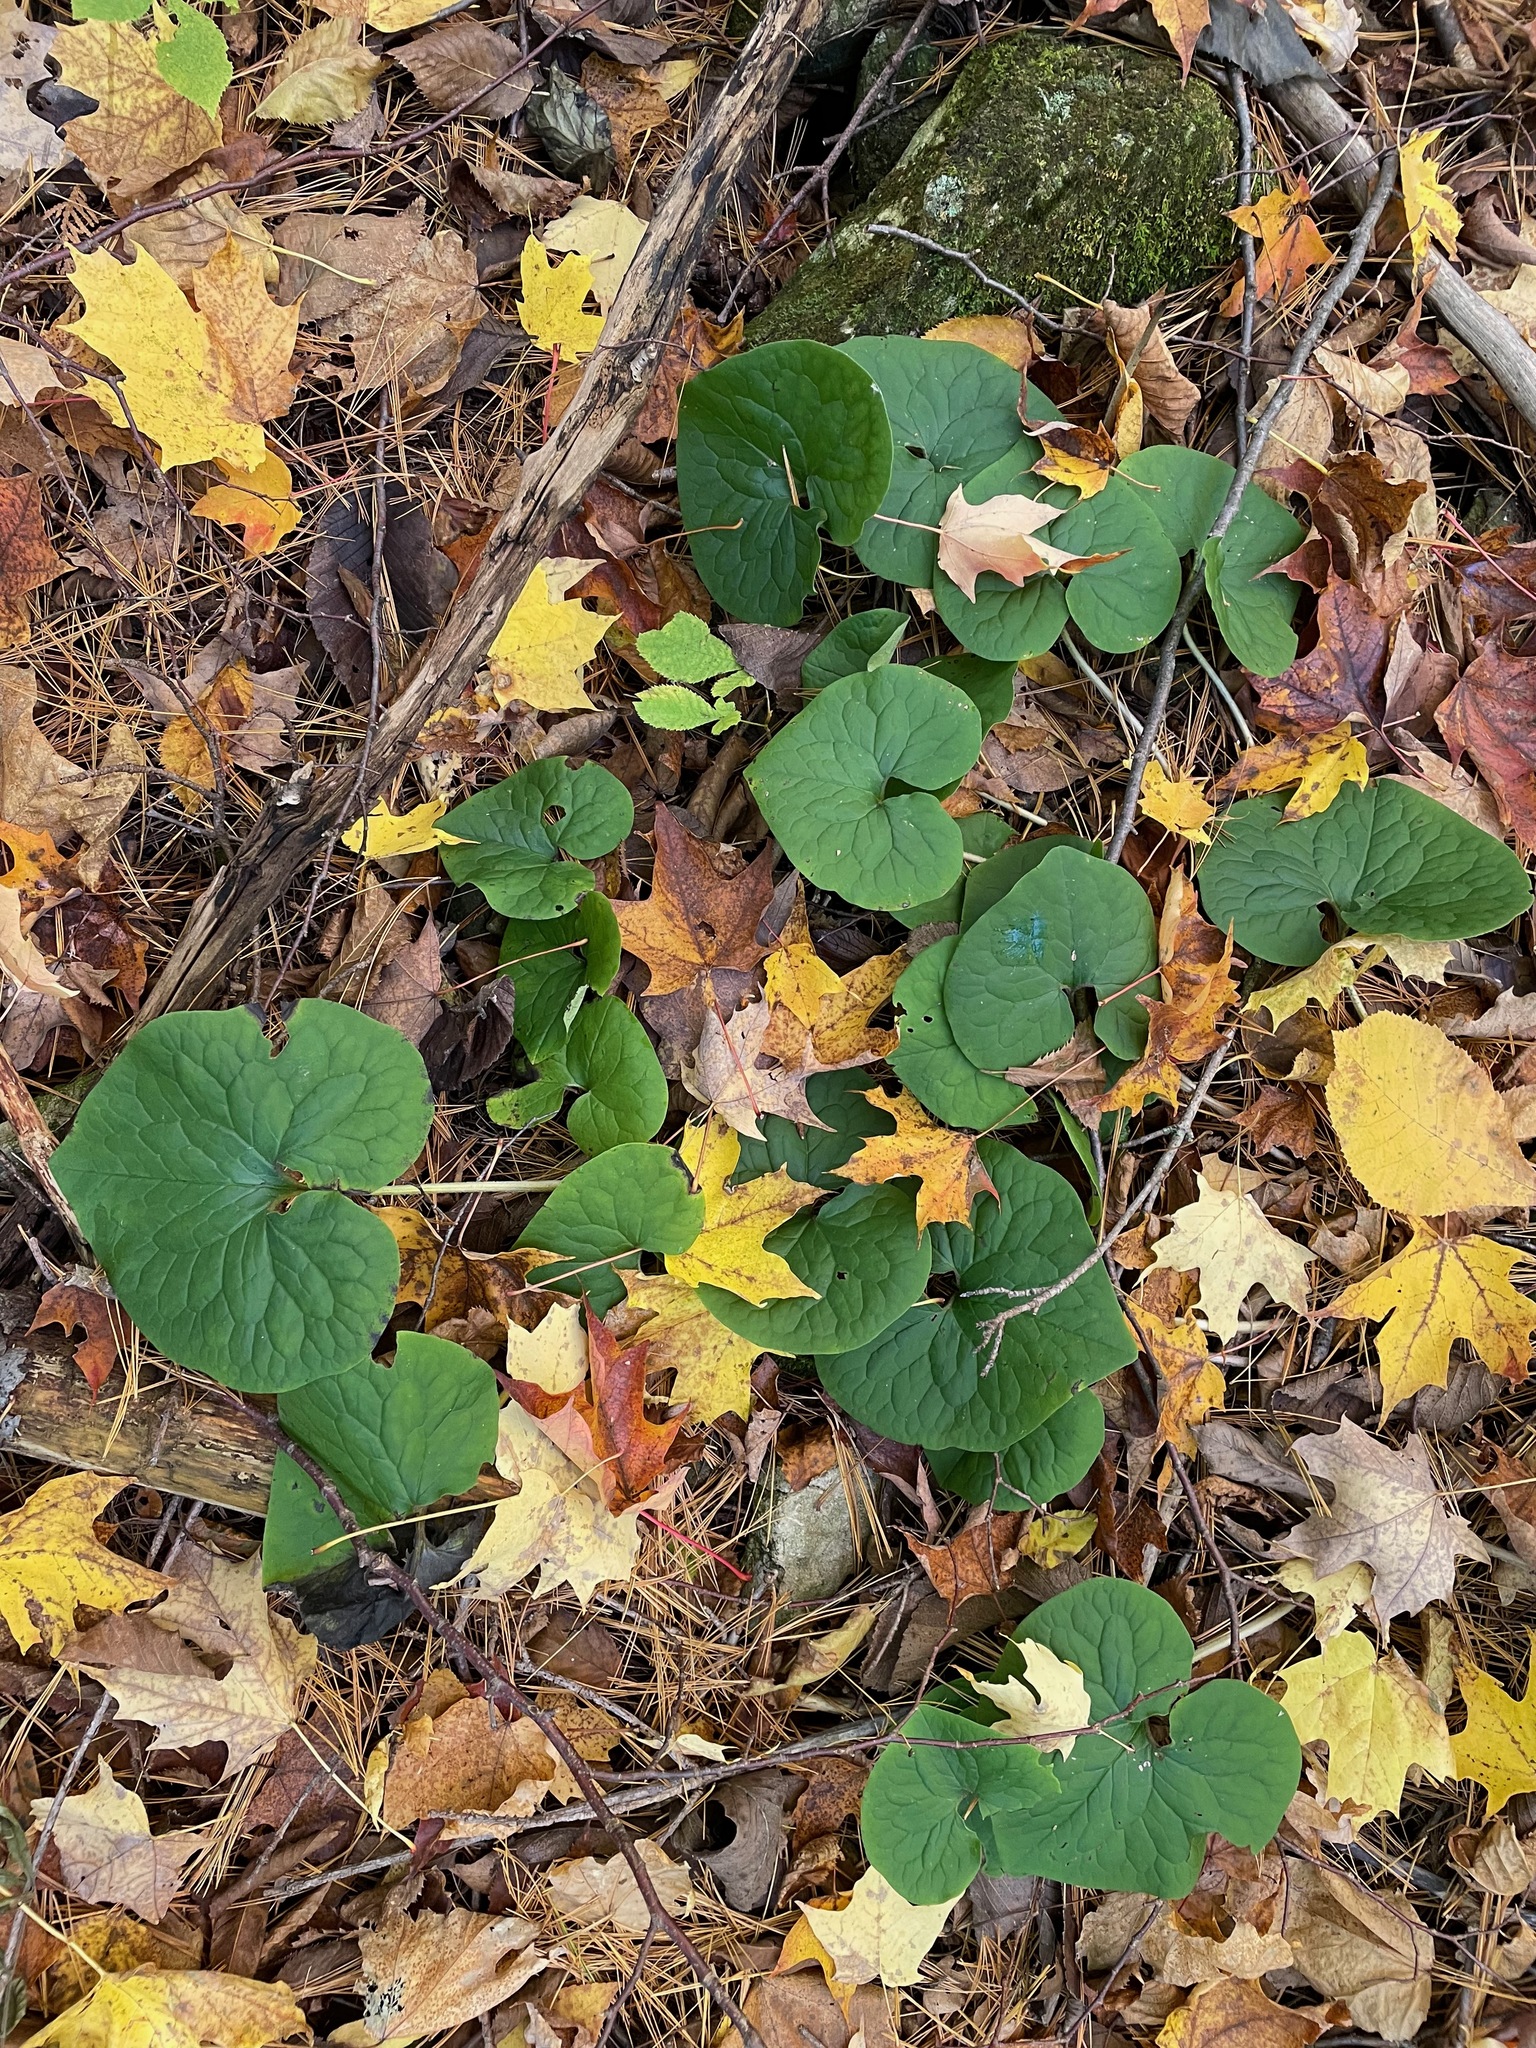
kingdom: Plantae
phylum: Tracheophyta
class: Magnoliopsida
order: Piperales
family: Aristolochiaceae
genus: Asarum
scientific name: Asarum canadense
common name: Wild ginger
